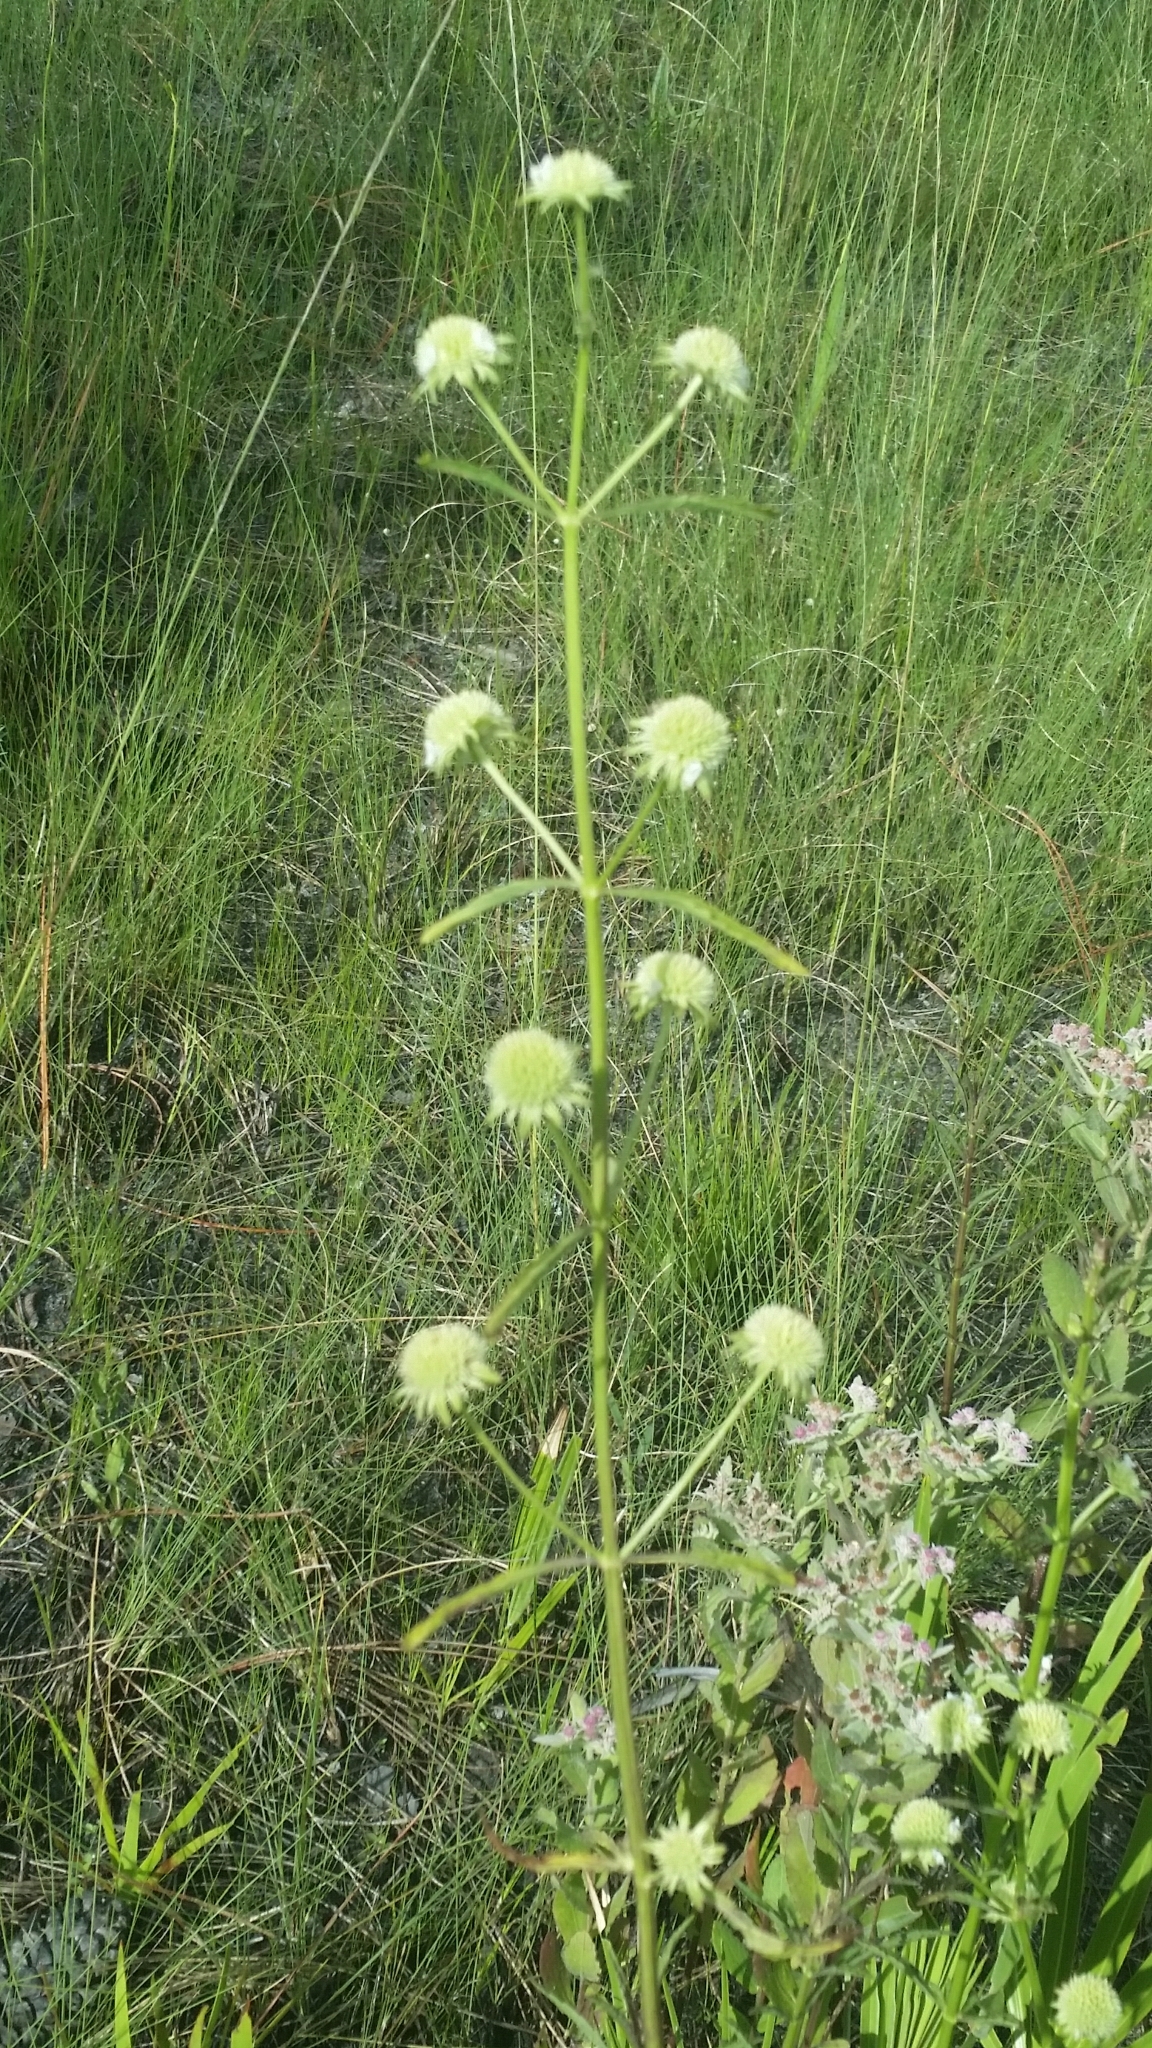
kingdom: Plantae
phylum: Tracheophyta
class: Magnoliopsida
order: Lamiales
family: Lamiaceae
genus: Hyptis
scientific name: Hyptis alata
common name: Cluster bush-mint
